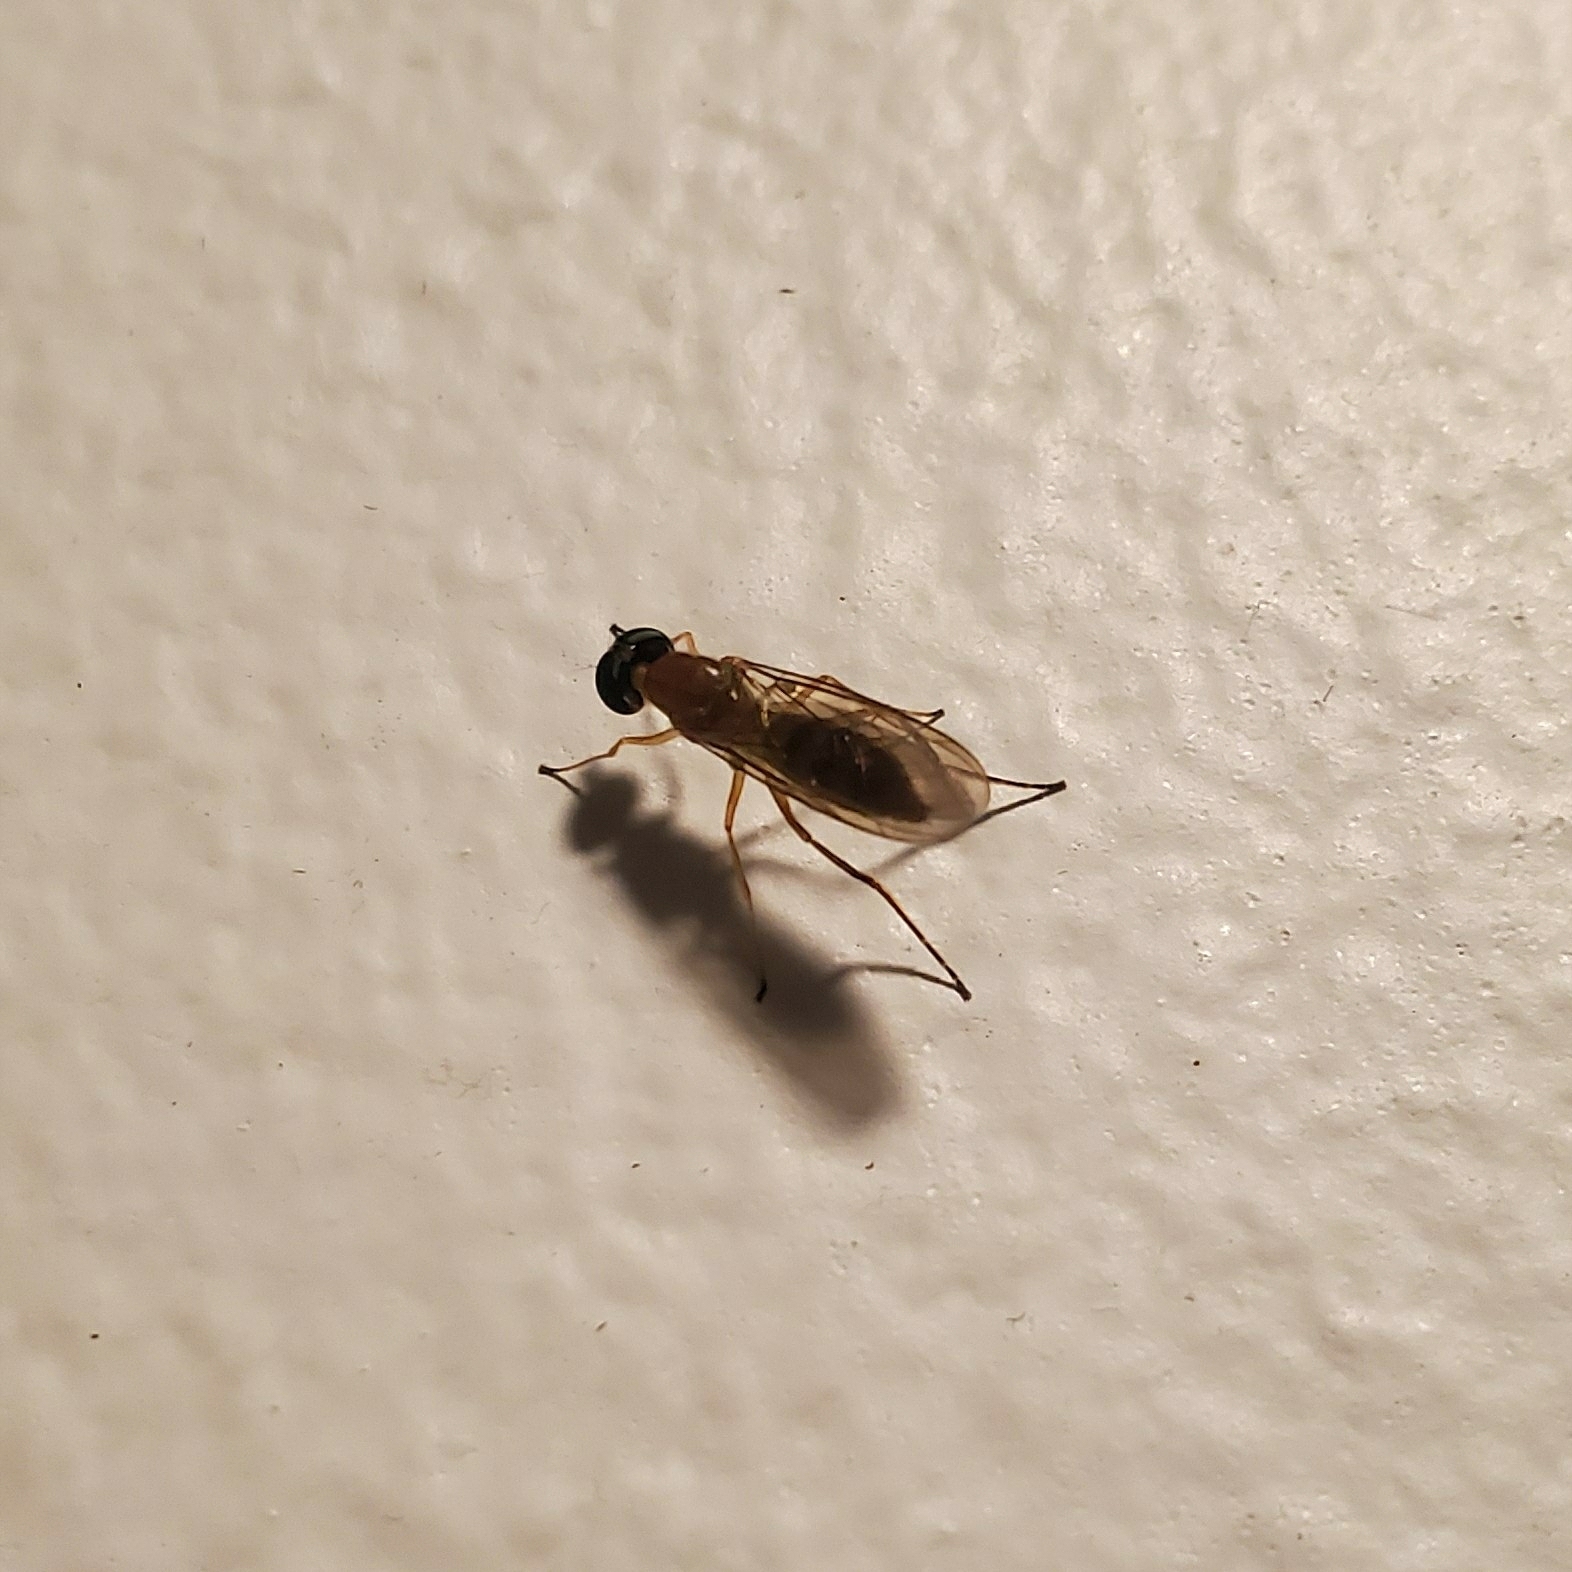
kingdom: Animalia
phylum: Arthropoda
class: Insecta
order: Diptera
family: Stratiomyidae
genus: Ptecticus
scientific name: Ptecticus trivittatus
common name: Compost fly
